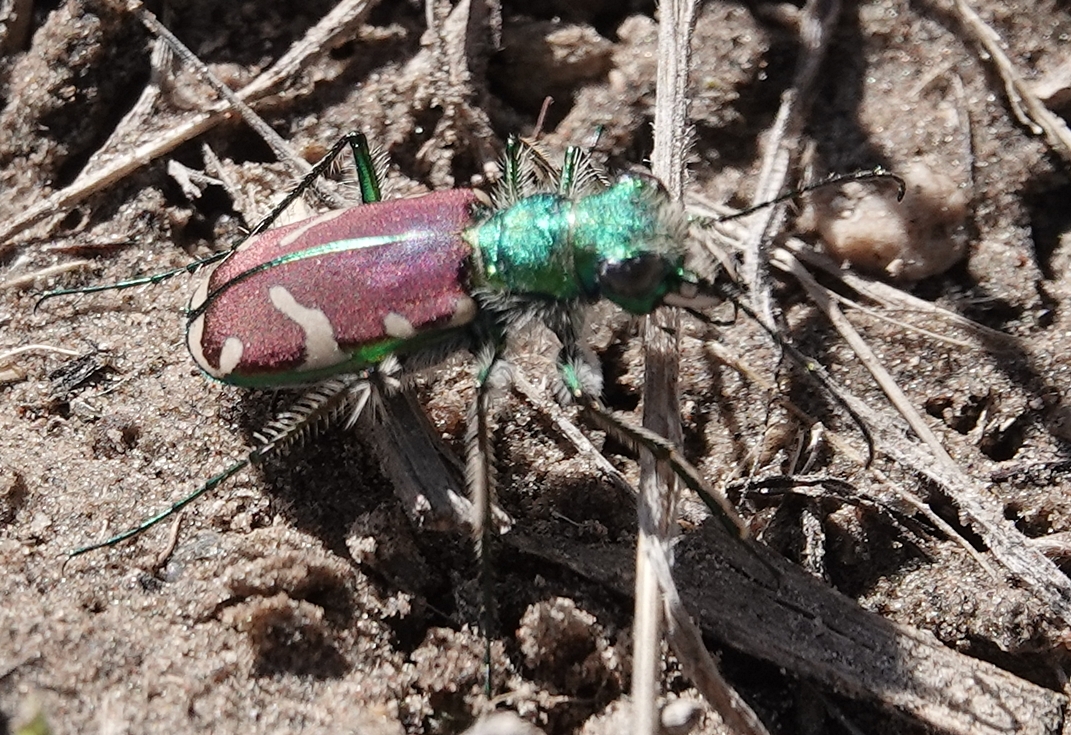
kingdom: Animalia
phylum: Arthropoda
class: Insecta
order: Coleoptera
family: Carabidae
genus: Cicindela
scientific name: Cicindela splendida
